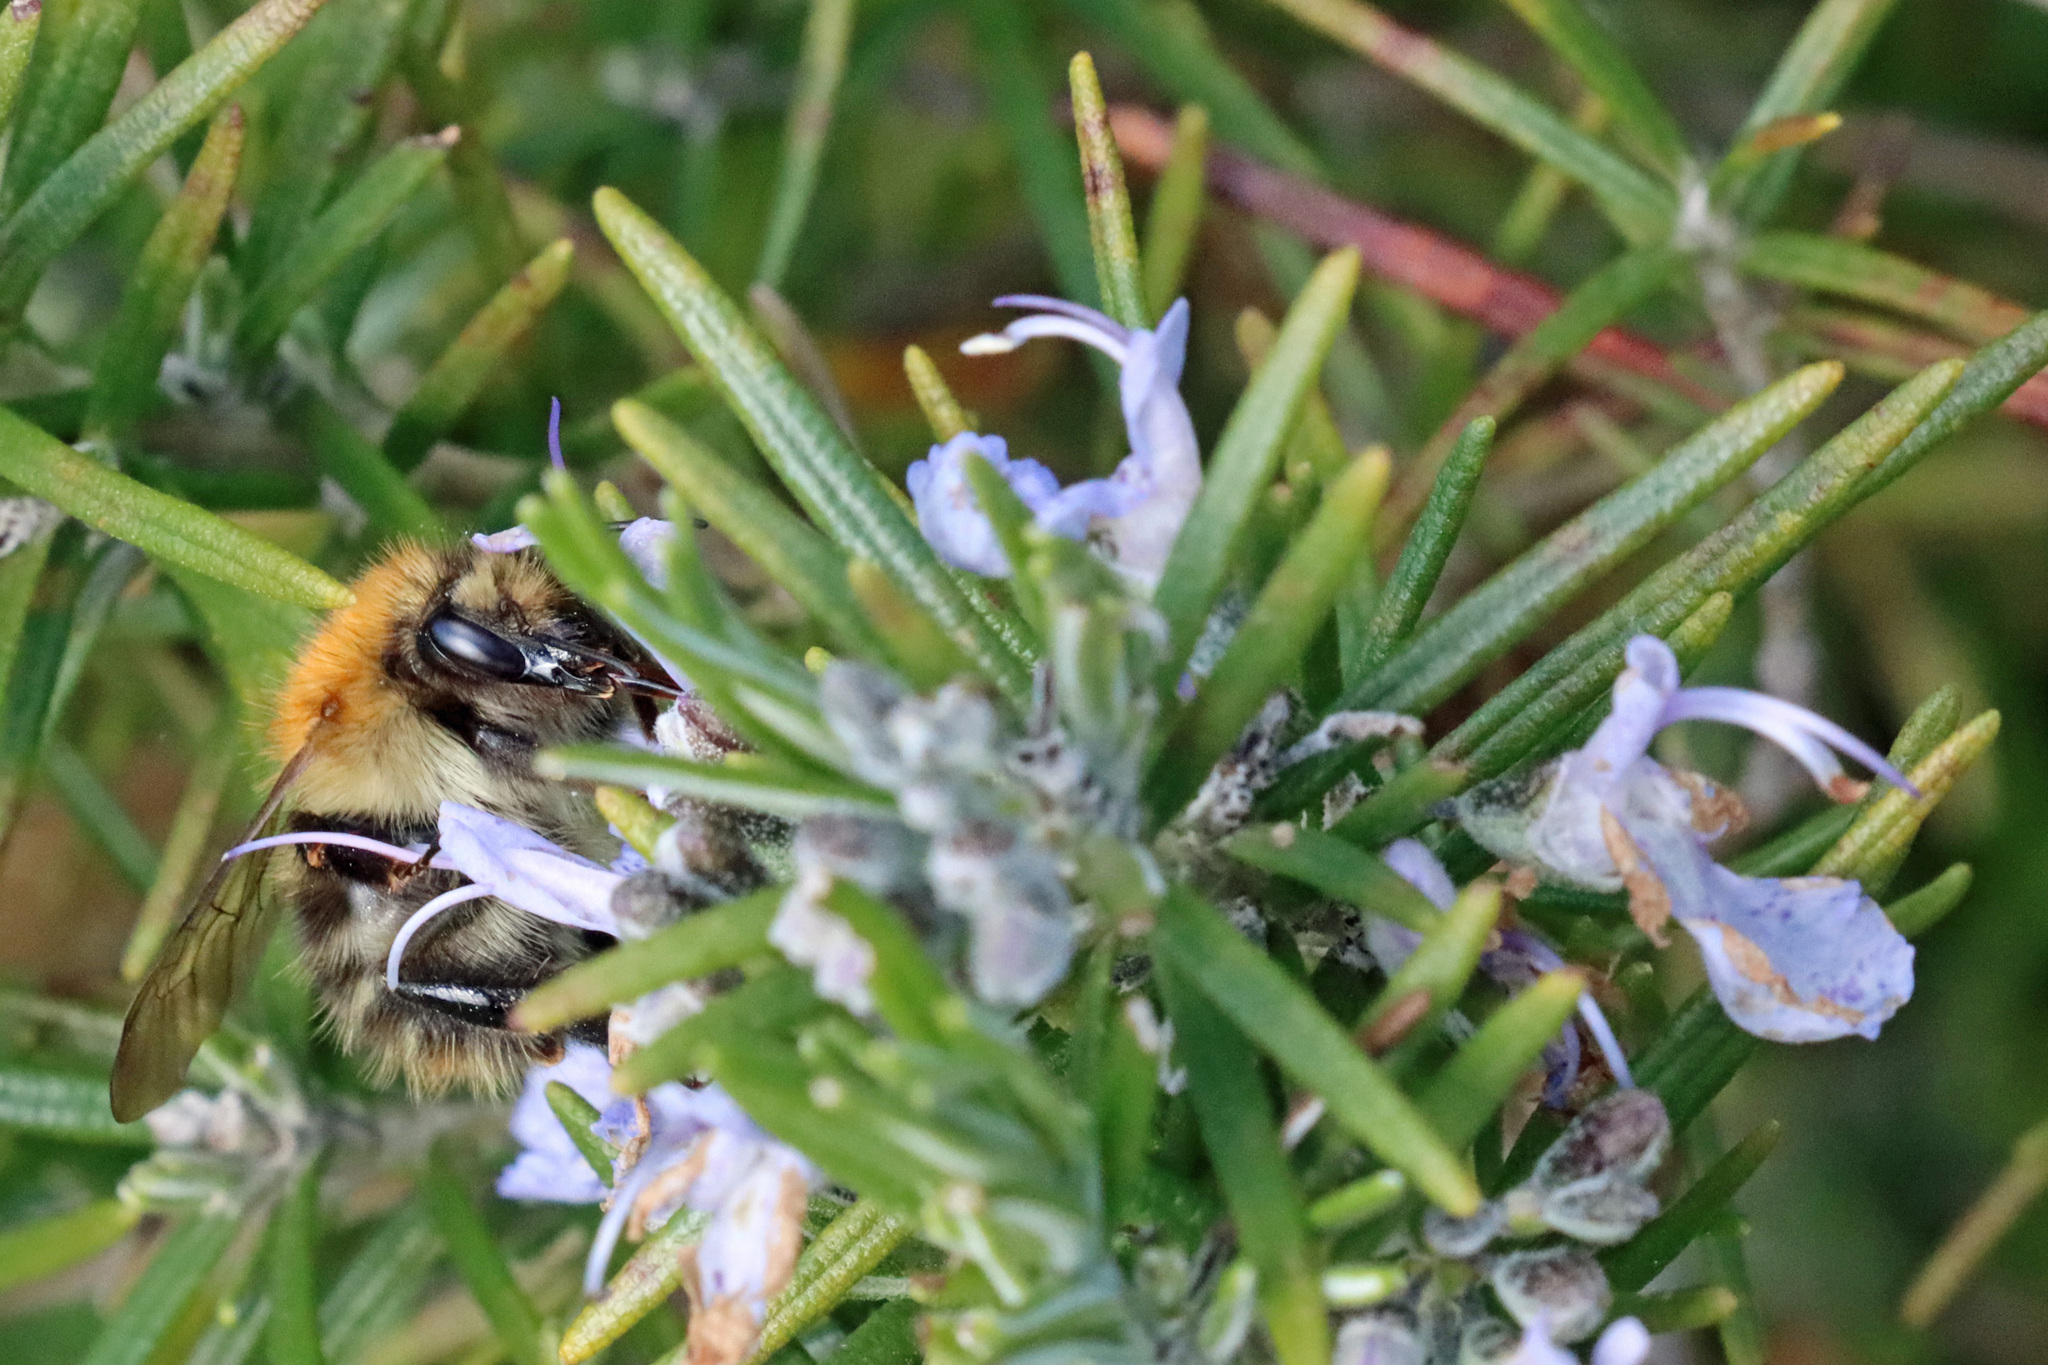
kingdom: Animalia
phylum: Arthropoda
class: Insecta
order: Hymenoptera
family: Apidae
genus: Bombus
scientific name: Bombus pascuorum
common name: Common carder bee
